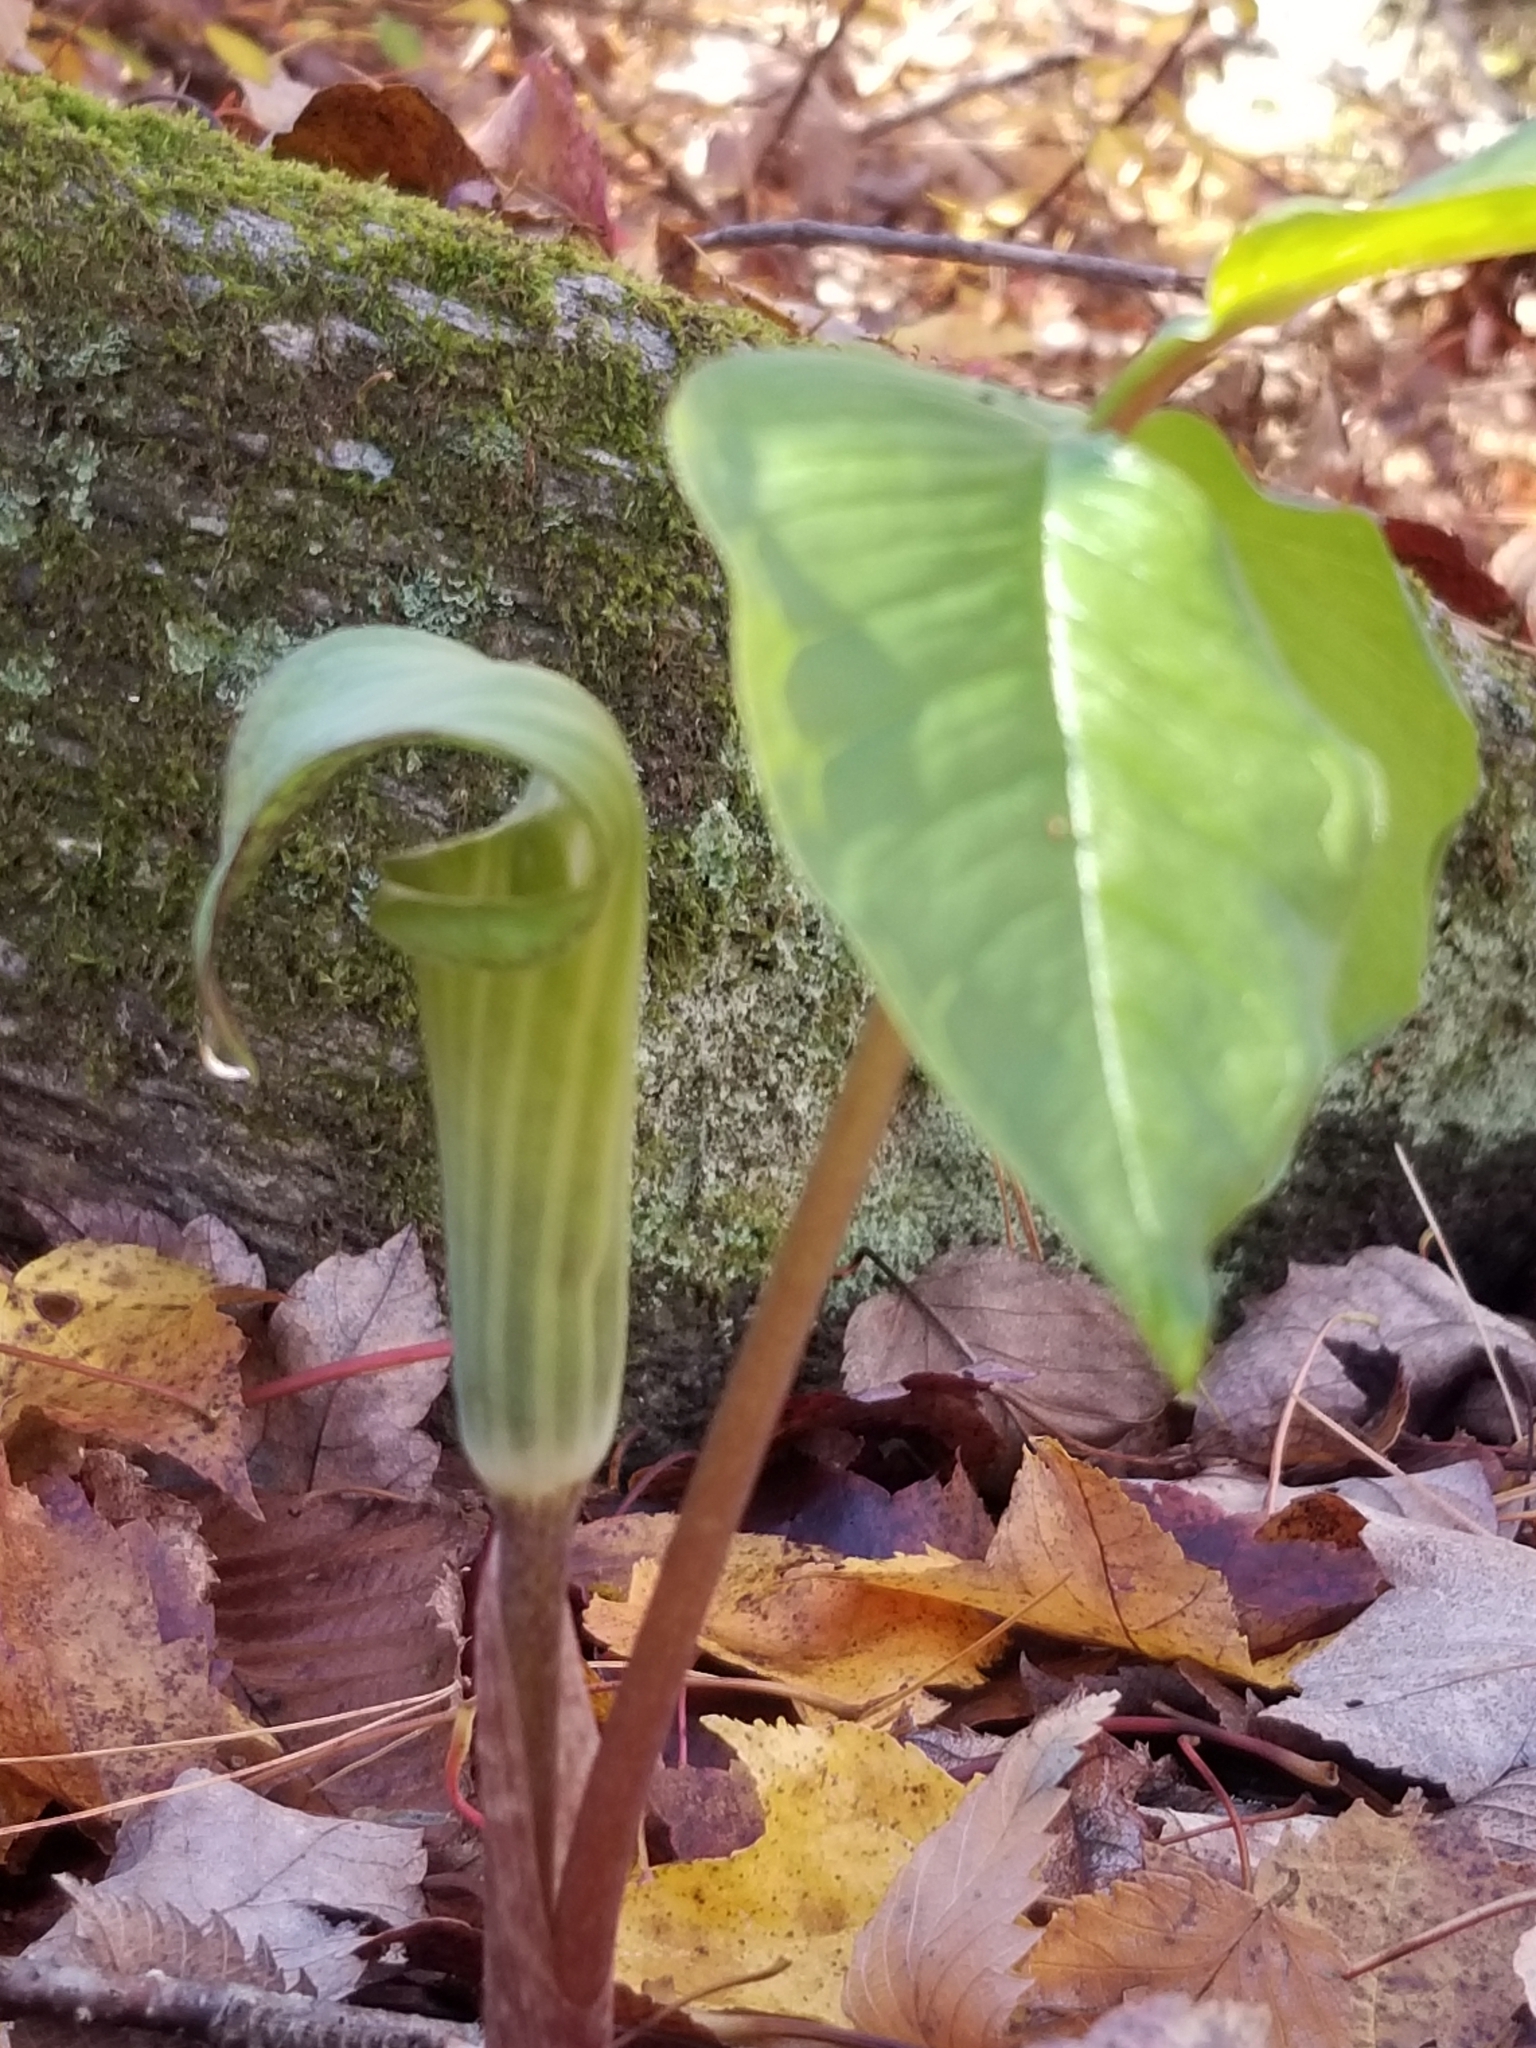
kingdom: Plantae
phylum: Tracheophyta
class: Liliopsida
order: Alismatales
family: Araceae
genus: Arisaema
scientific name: Arisaema triphyllum
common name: Jack-in-the-pulpit
